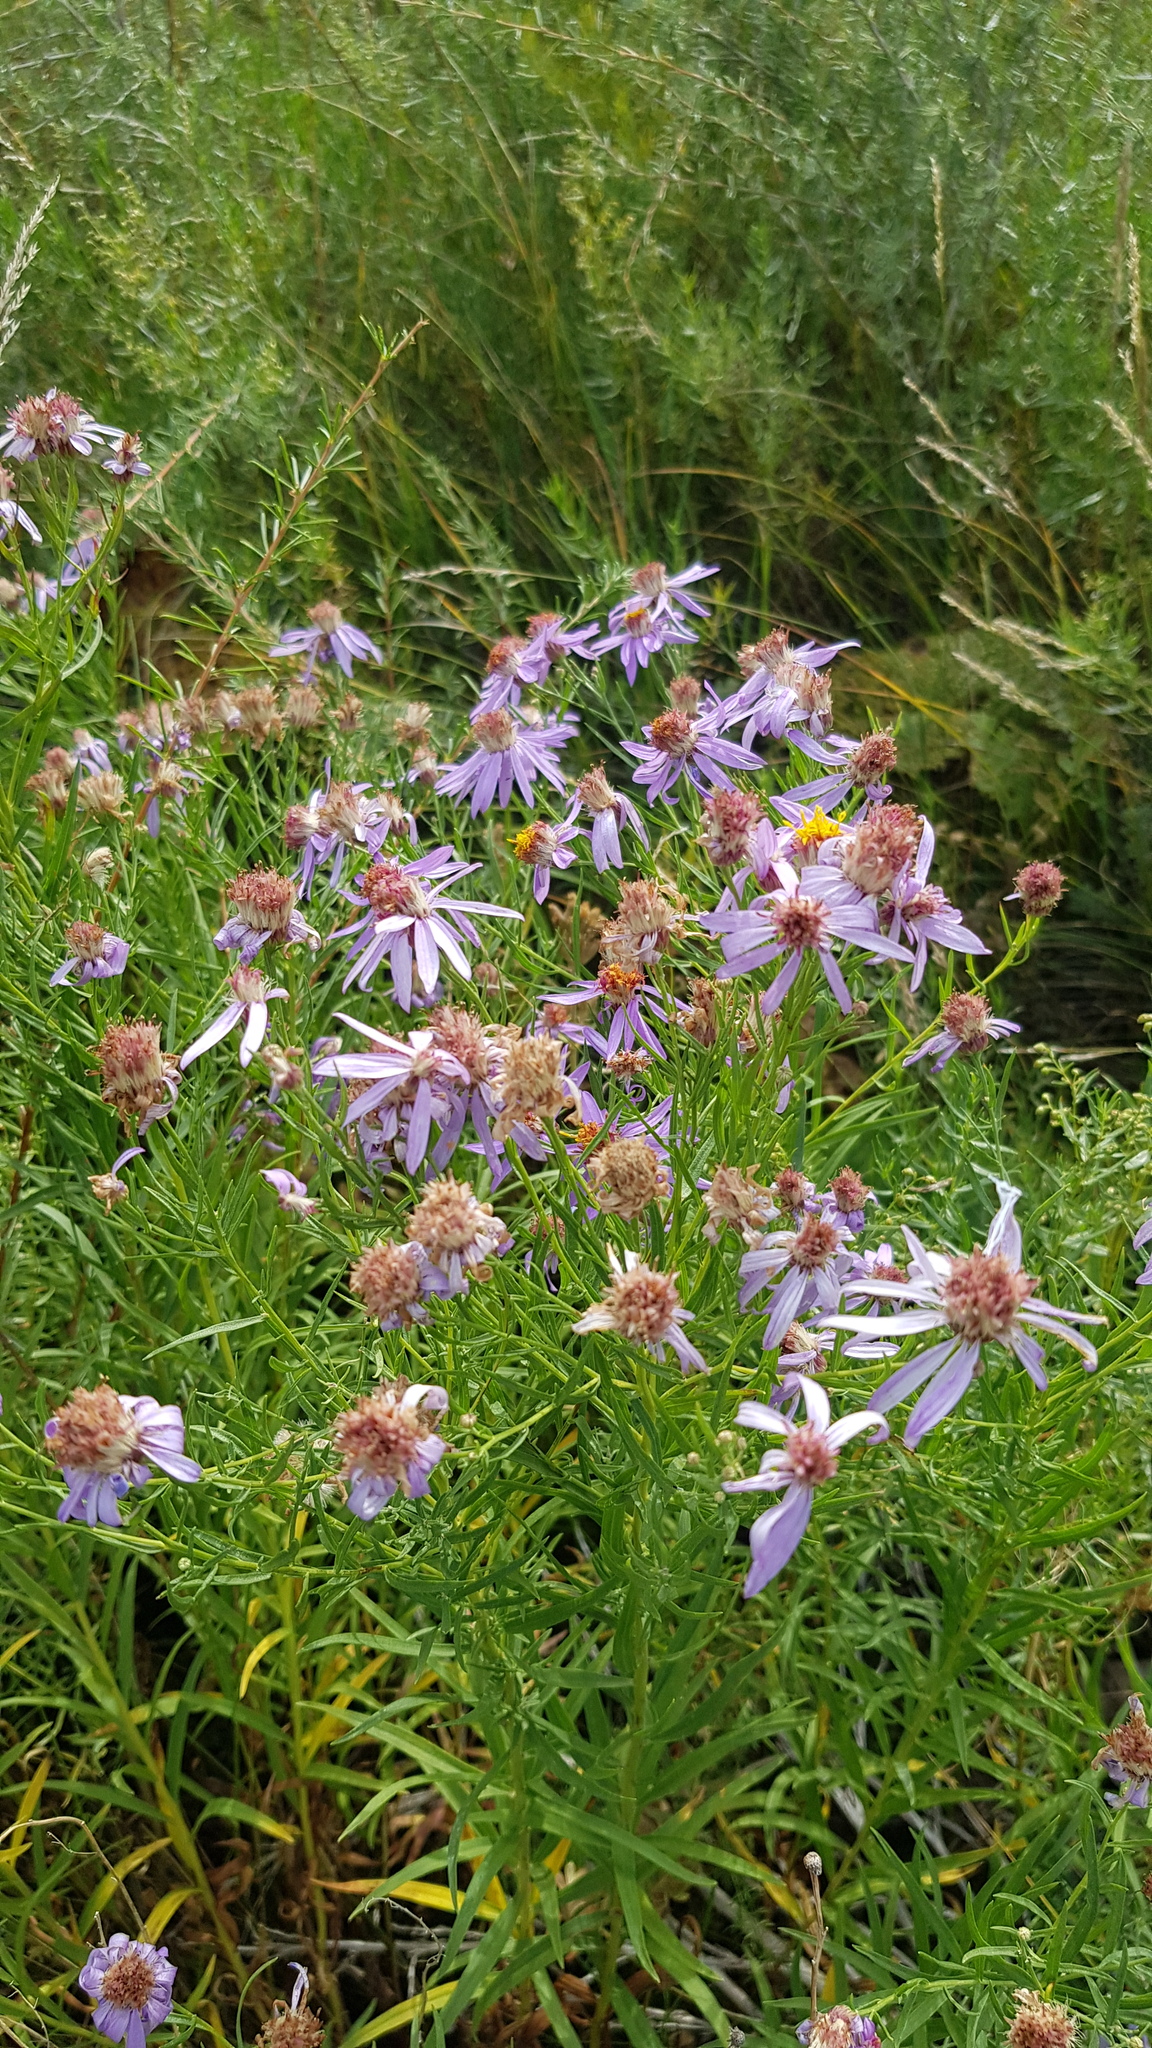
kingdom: Plantae
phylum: Tracheophyta
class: Magnoliopsida
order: Asterales
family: Asteraceae
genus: Galatella
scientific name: Galatella dahurica
